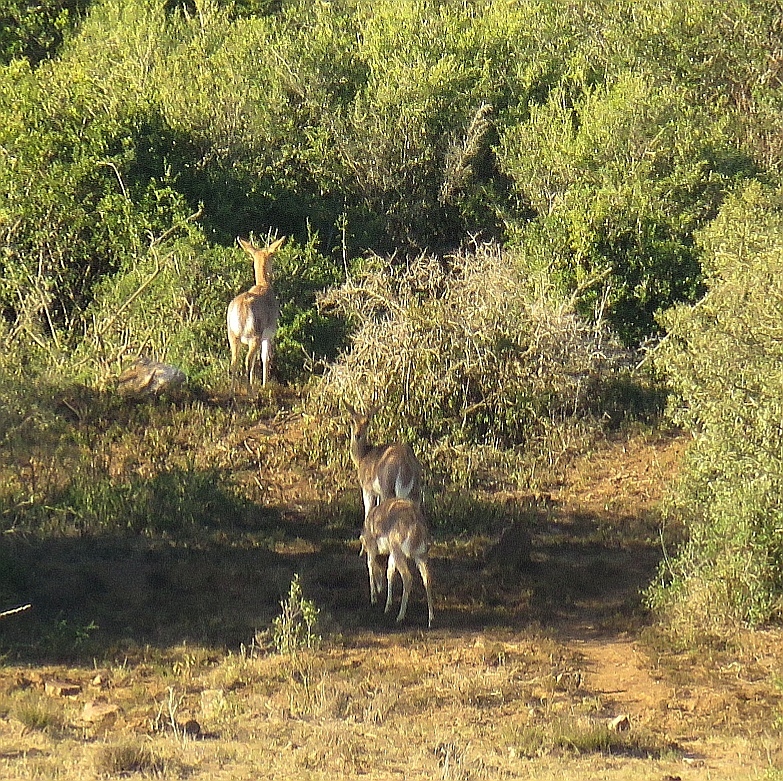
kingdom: Animalia
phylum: Chordata
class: Mammalia
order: Artiodactyla
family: Bovidae
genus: Redunca
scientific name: Redunca fulvorufula
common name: Mountain reedbuck
